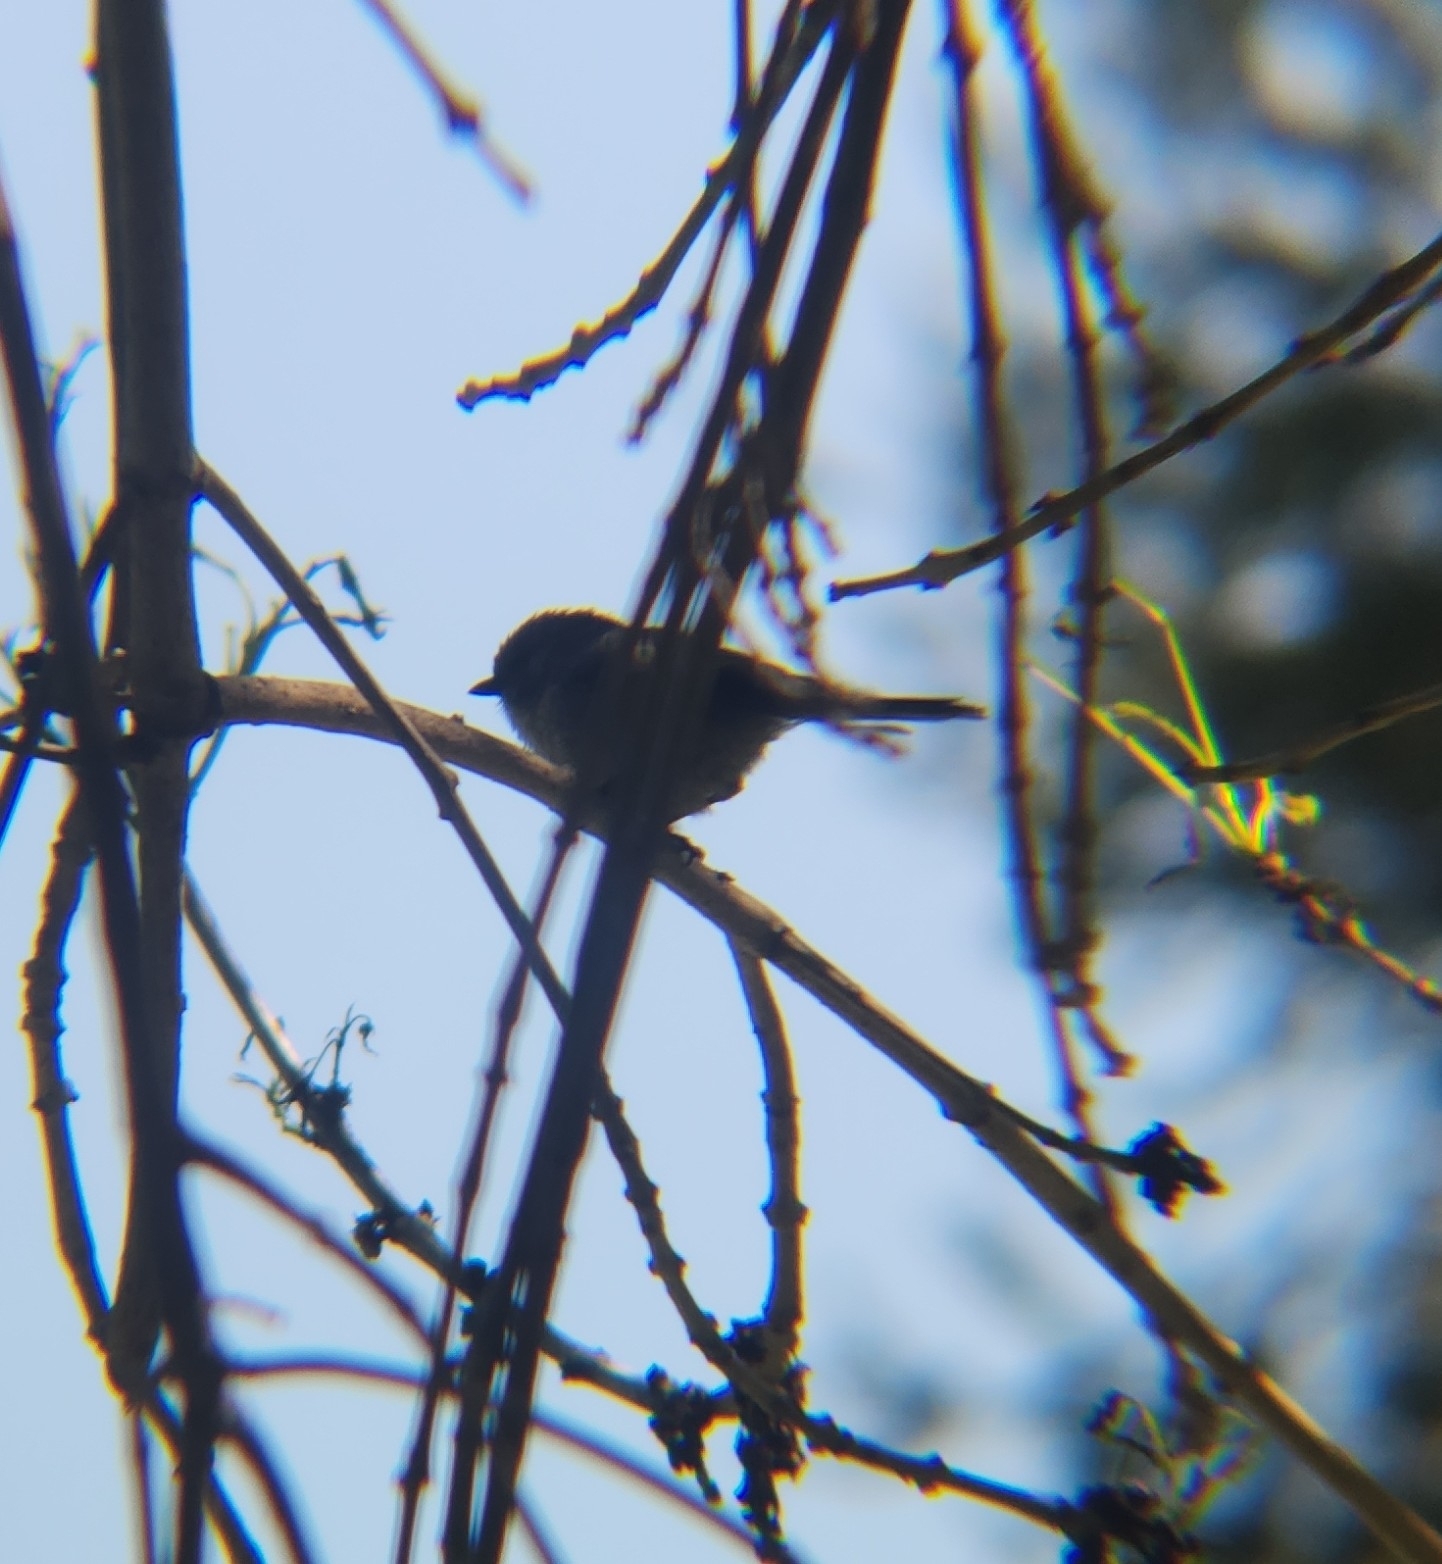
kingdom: Animalia
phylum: Chordata
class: Aves
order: Passeriformes
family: Aegithalidae
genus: Psaltriparus
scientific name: Psaltriparus minimus
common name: American bushtit
